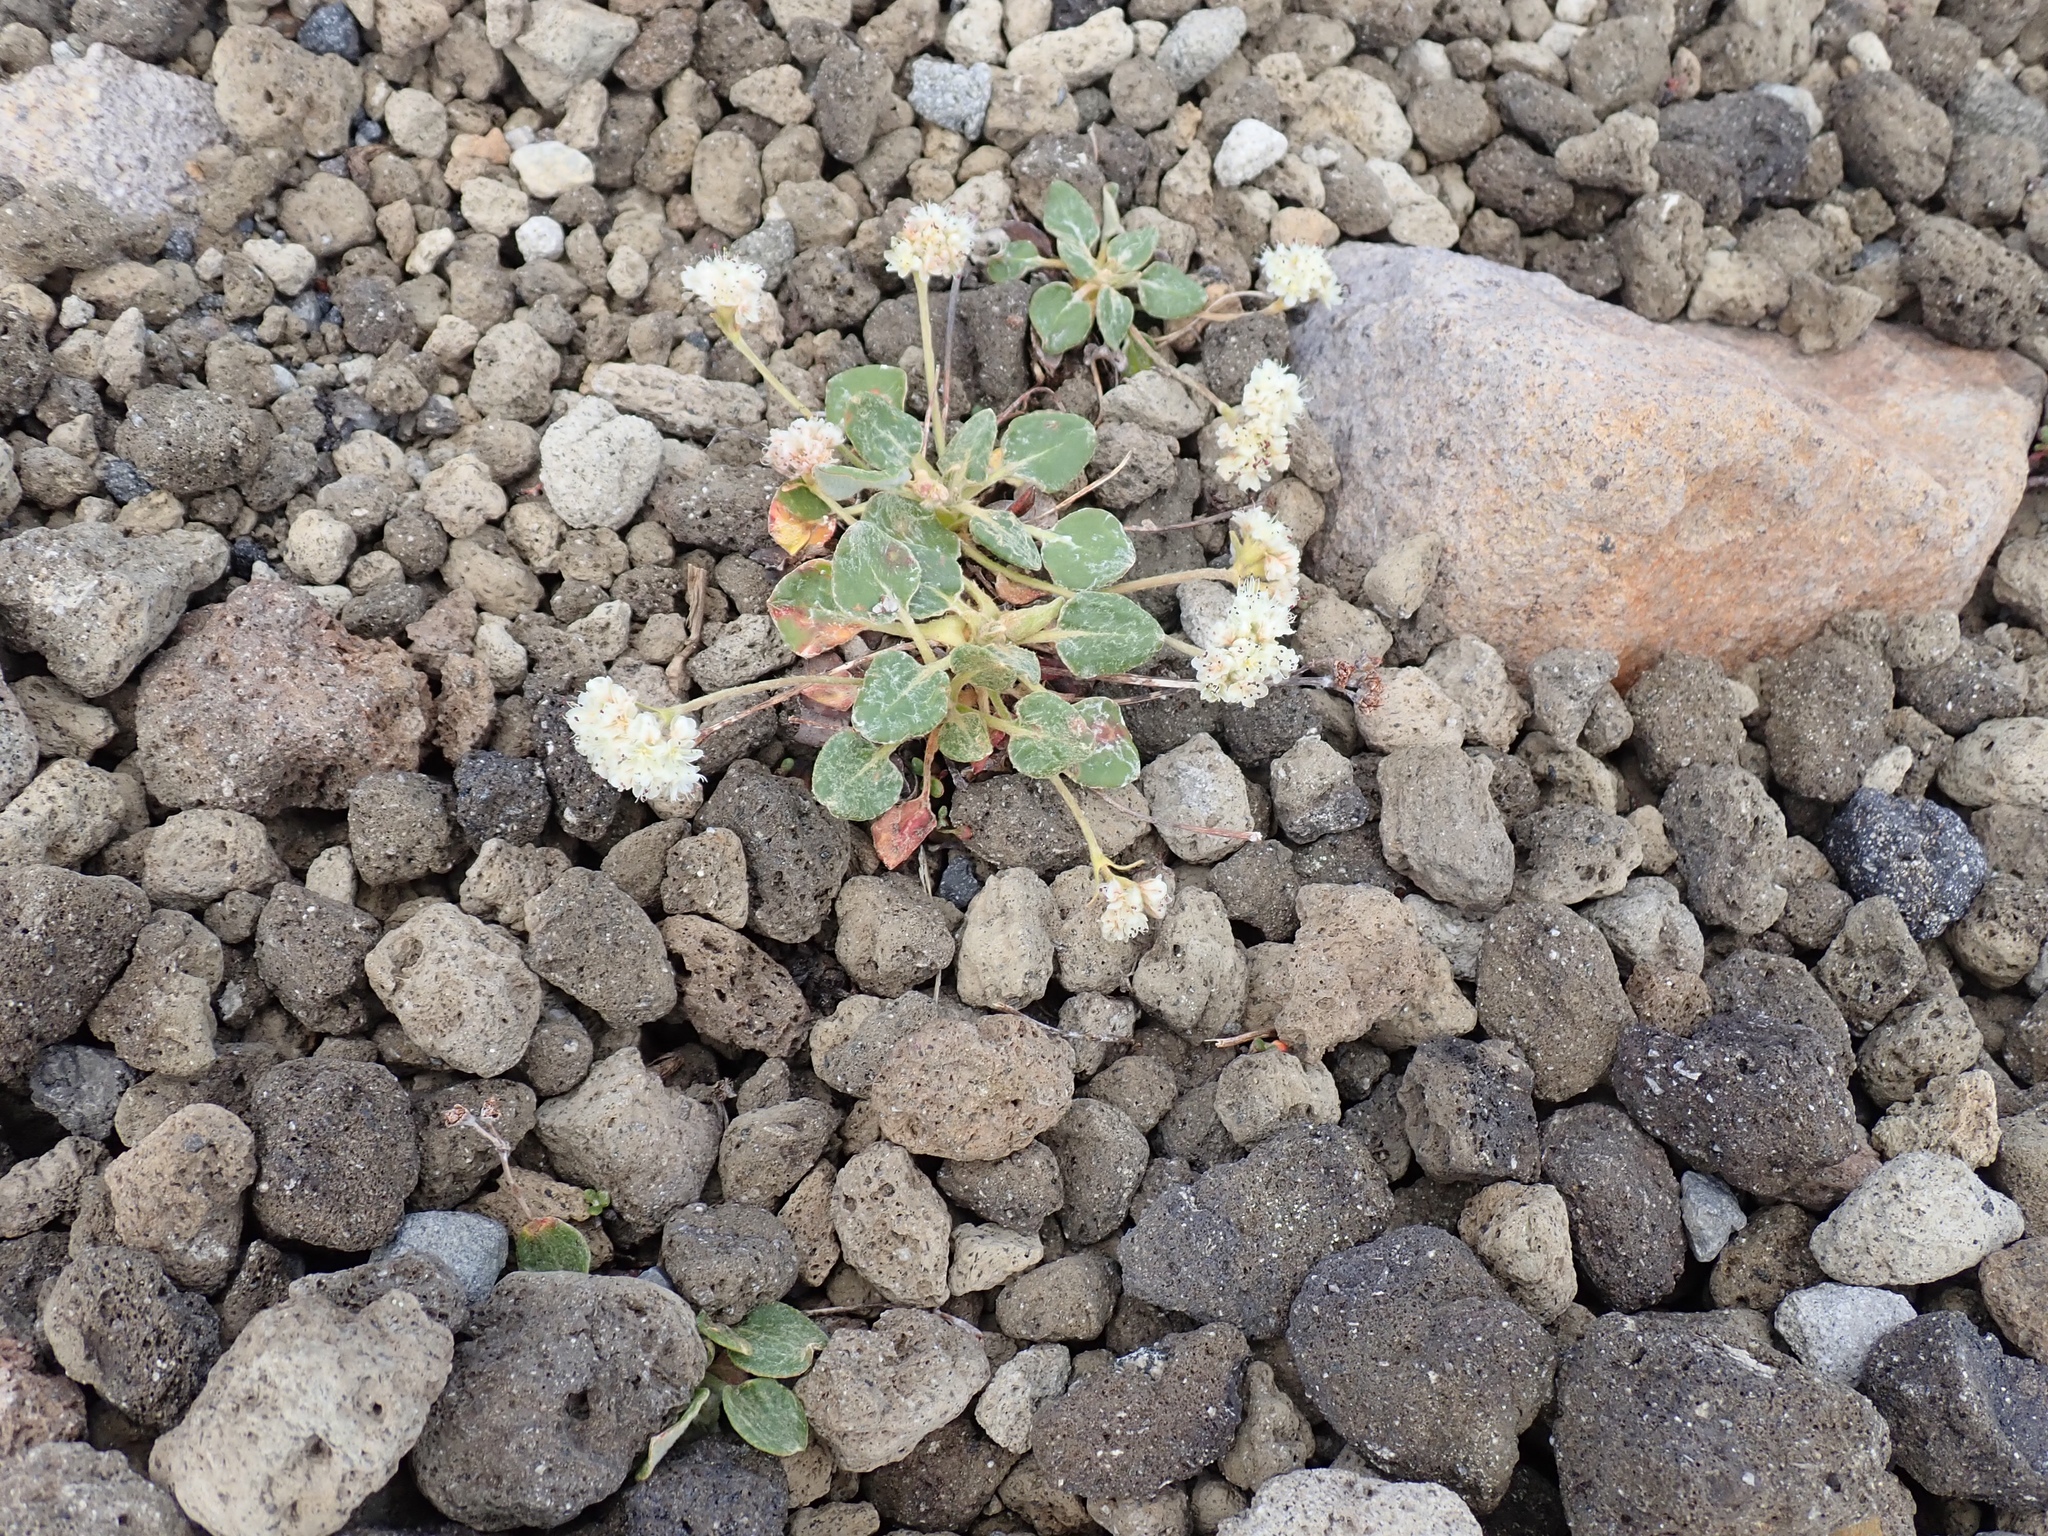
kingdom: Plantae
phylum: Tracheophyta
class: Magnoliopsida
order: Caryophyllales
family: Polygonaceae
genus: Eriogonum
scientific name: Eriogonum pyrolifolium
